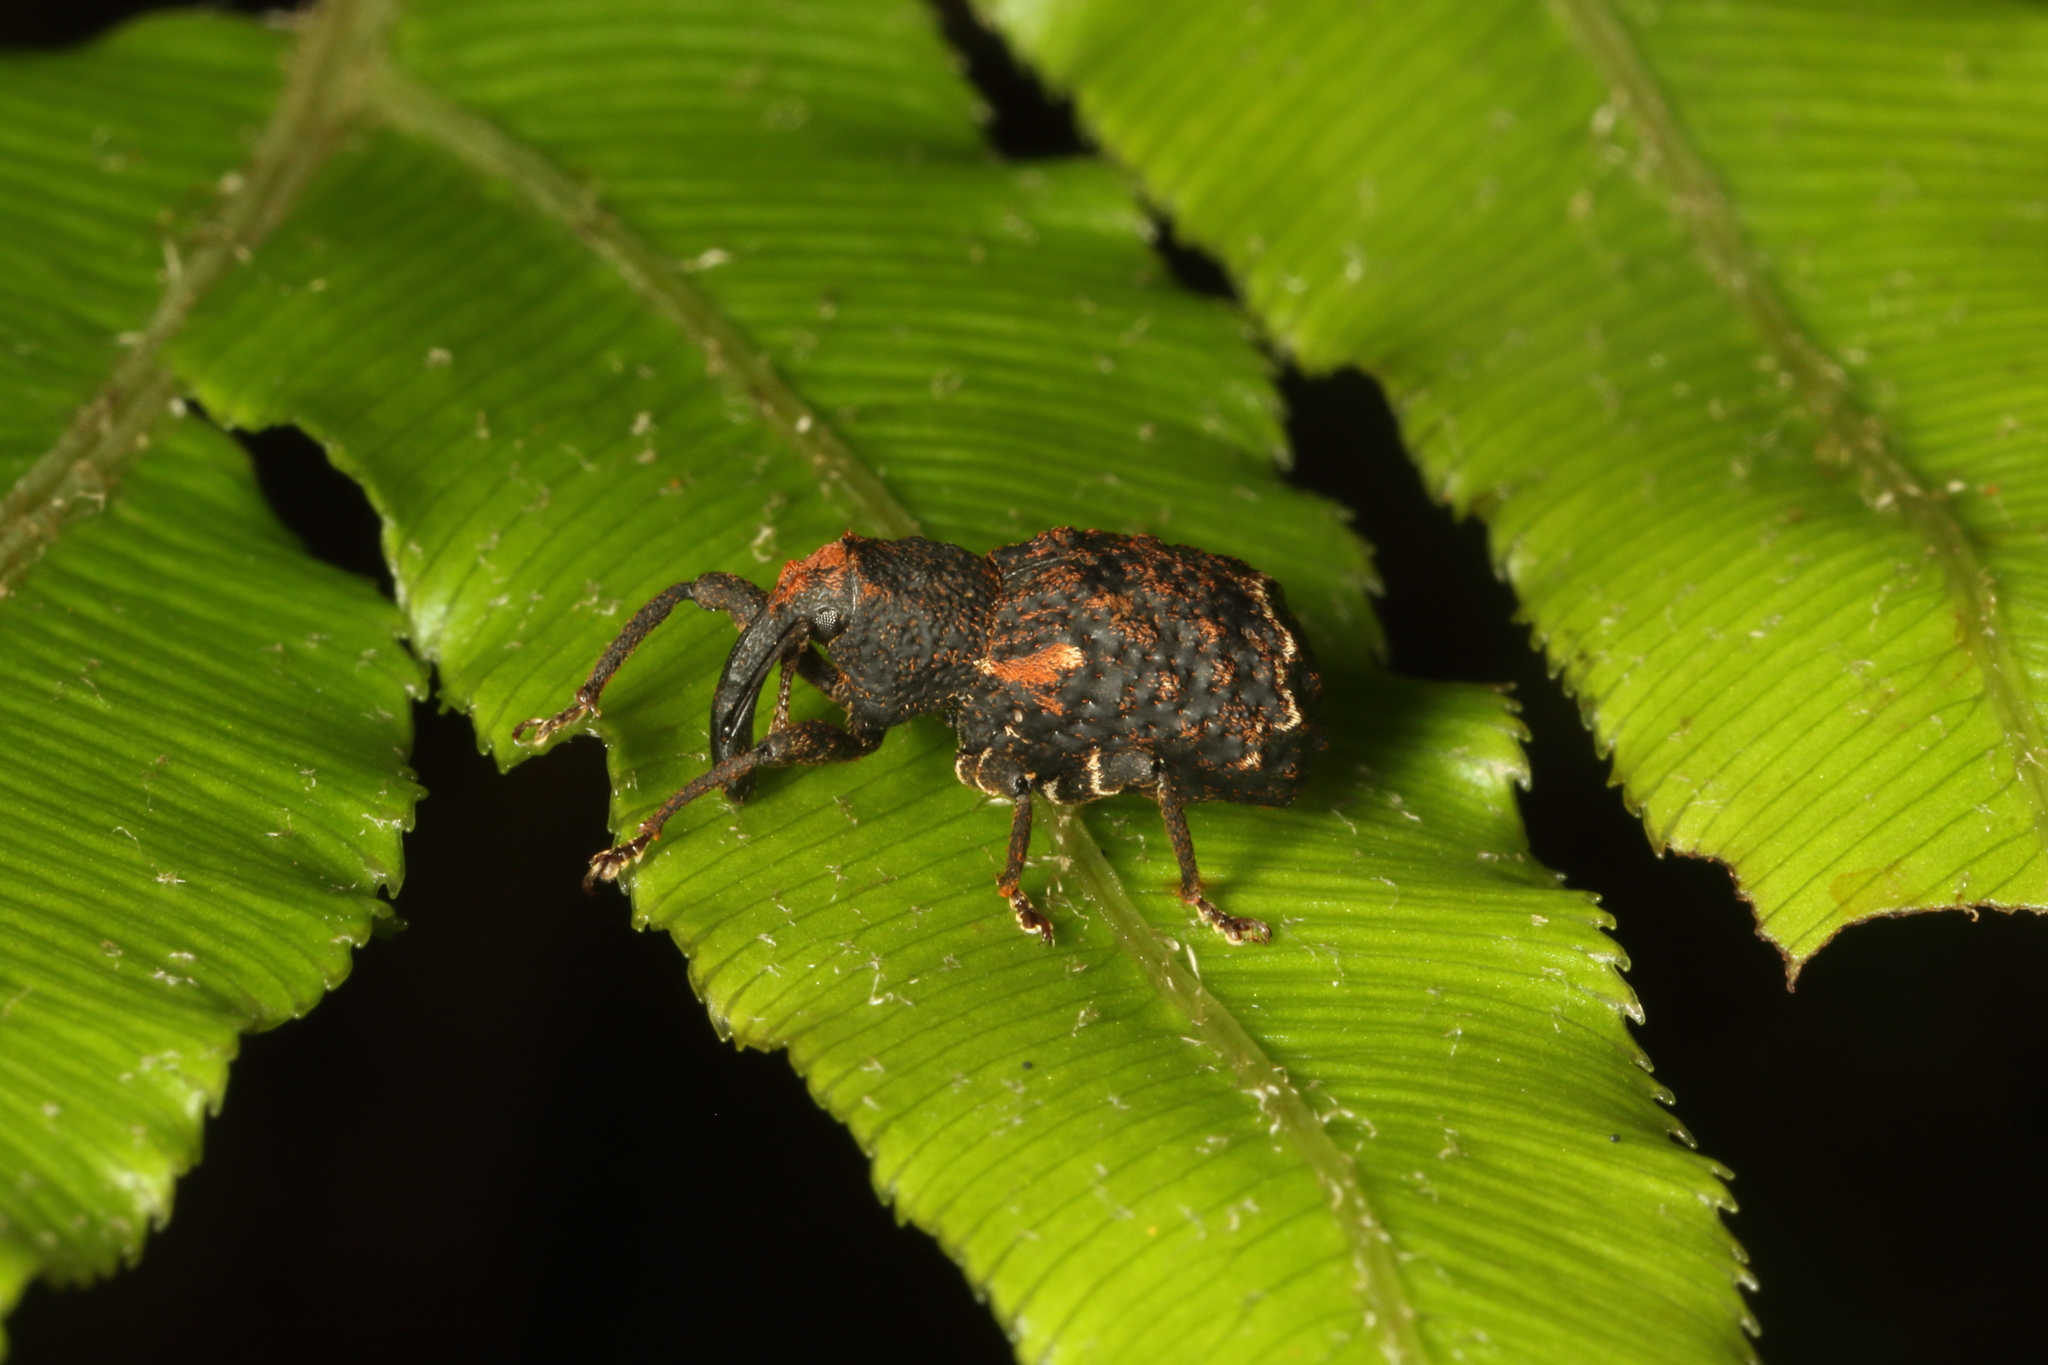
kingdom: Animalia
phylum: Arthropoda
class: Insecta
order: Coleoptera
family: Curculionidae
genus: Megacolabus
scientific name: Megacolabus decipiens
